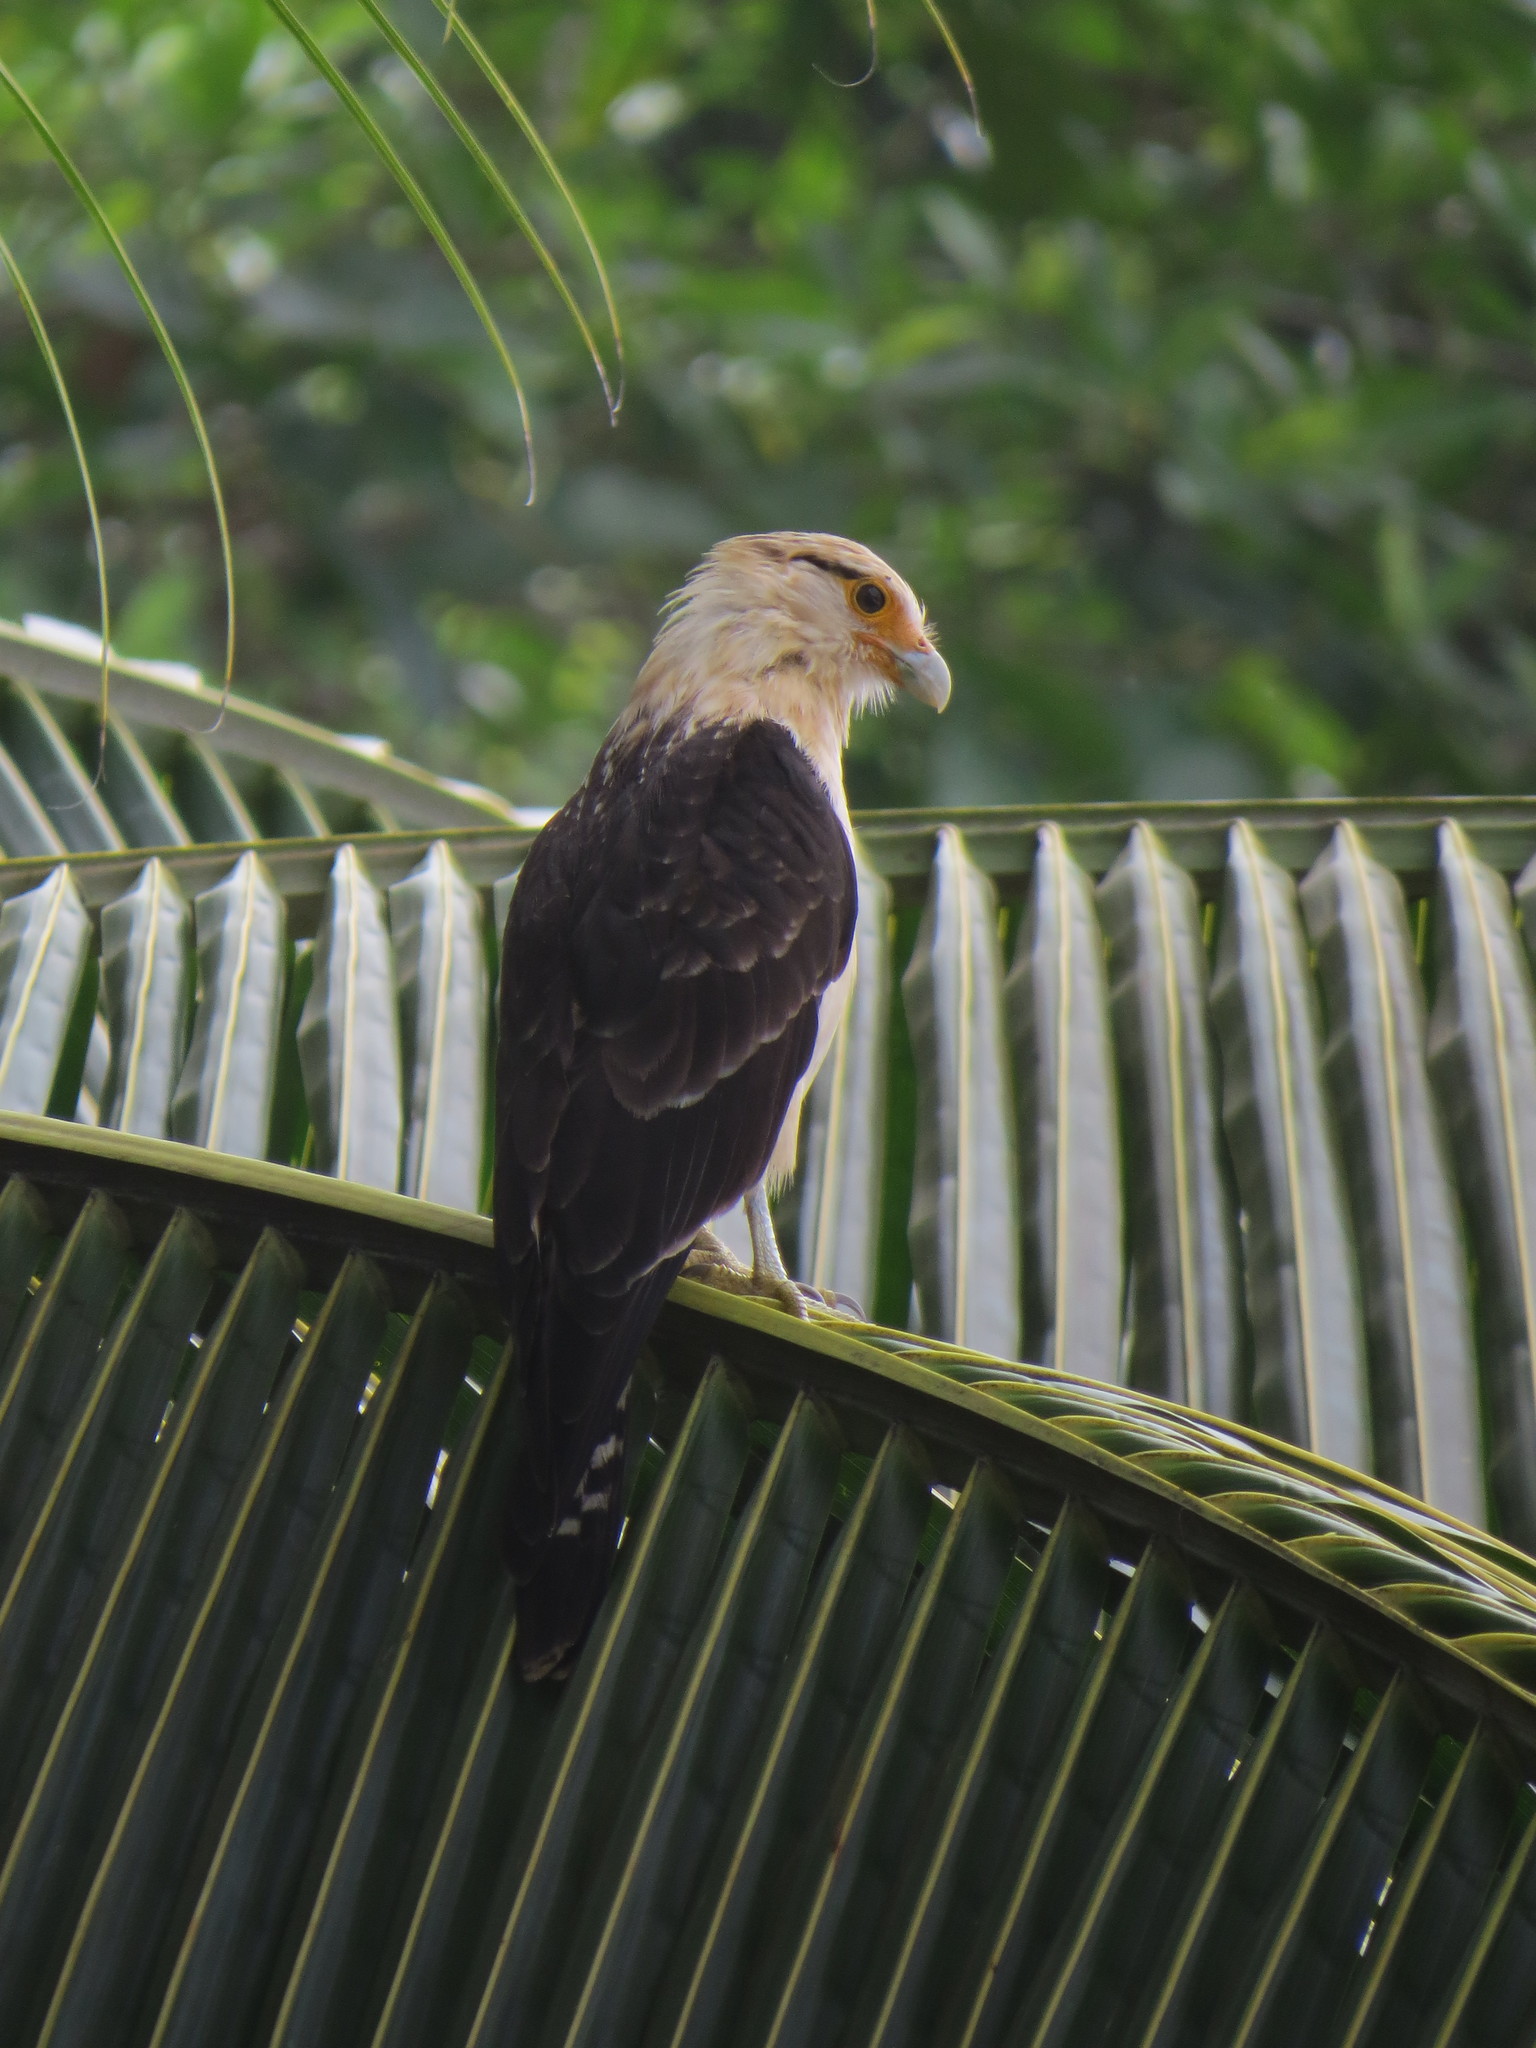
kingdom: Animalia
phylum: Chordata
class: Aves
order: Falconiformes
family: Falconidae
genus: Daptrius
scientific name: Daptrius
